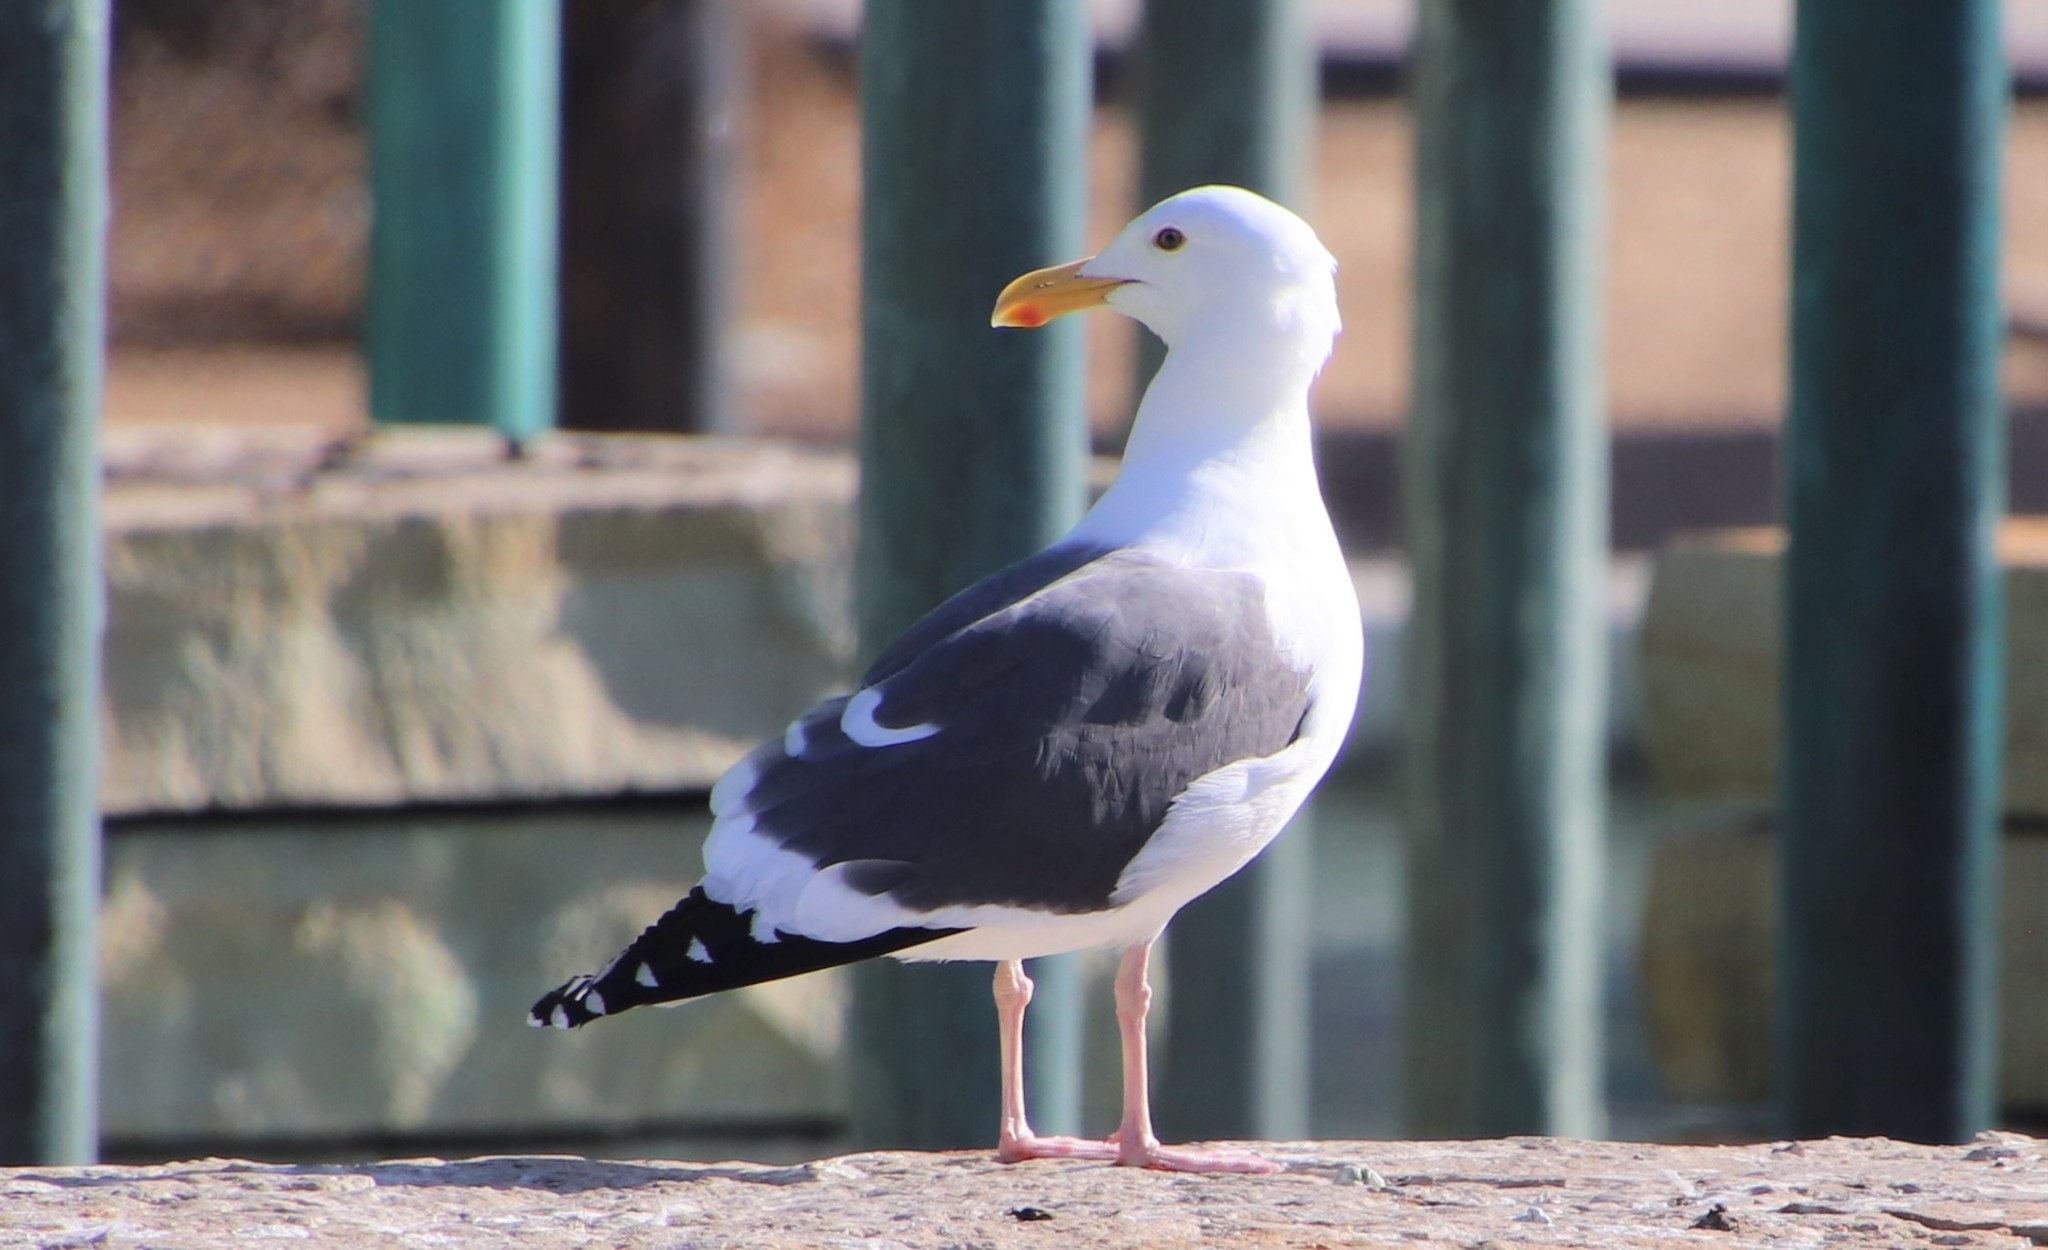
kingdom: Animalia
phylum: Chordata
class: Aves
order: Charadriiformes
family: Laridae
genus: Larus
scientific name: Larus occidentalis
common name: Western gull
